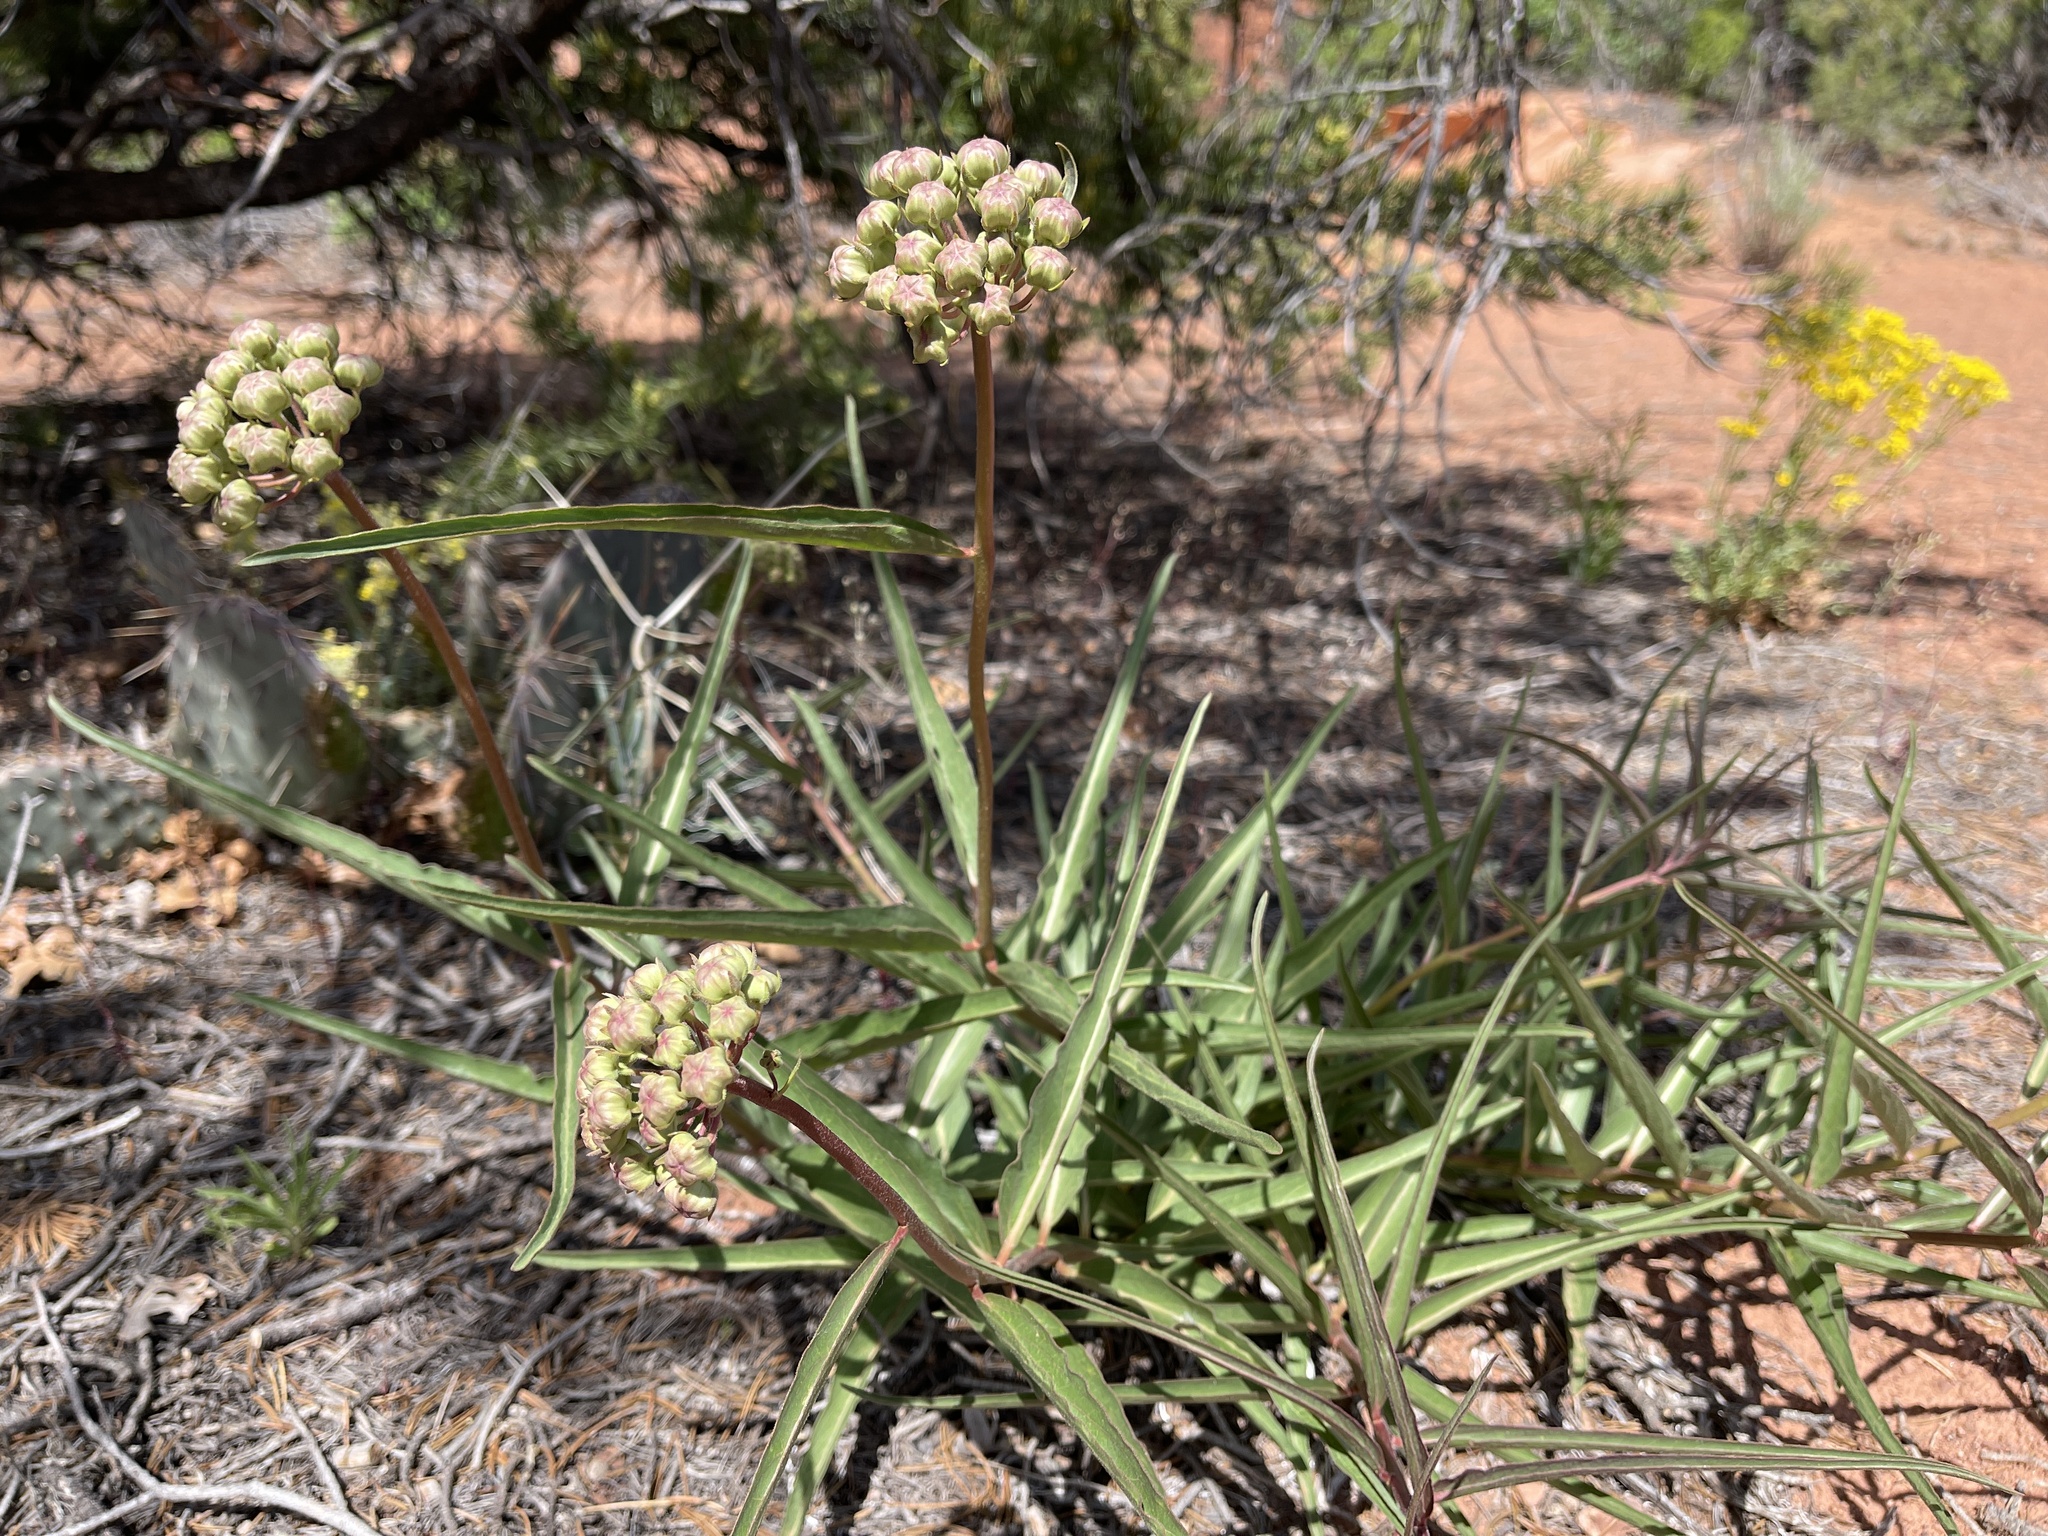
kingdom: Plantae
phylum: Tracheophyta
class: Magnoliopsida
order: Gentianales
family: Apocynaceae
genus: Asclepias
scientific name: Asclepias asperula
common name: Antelope horns
